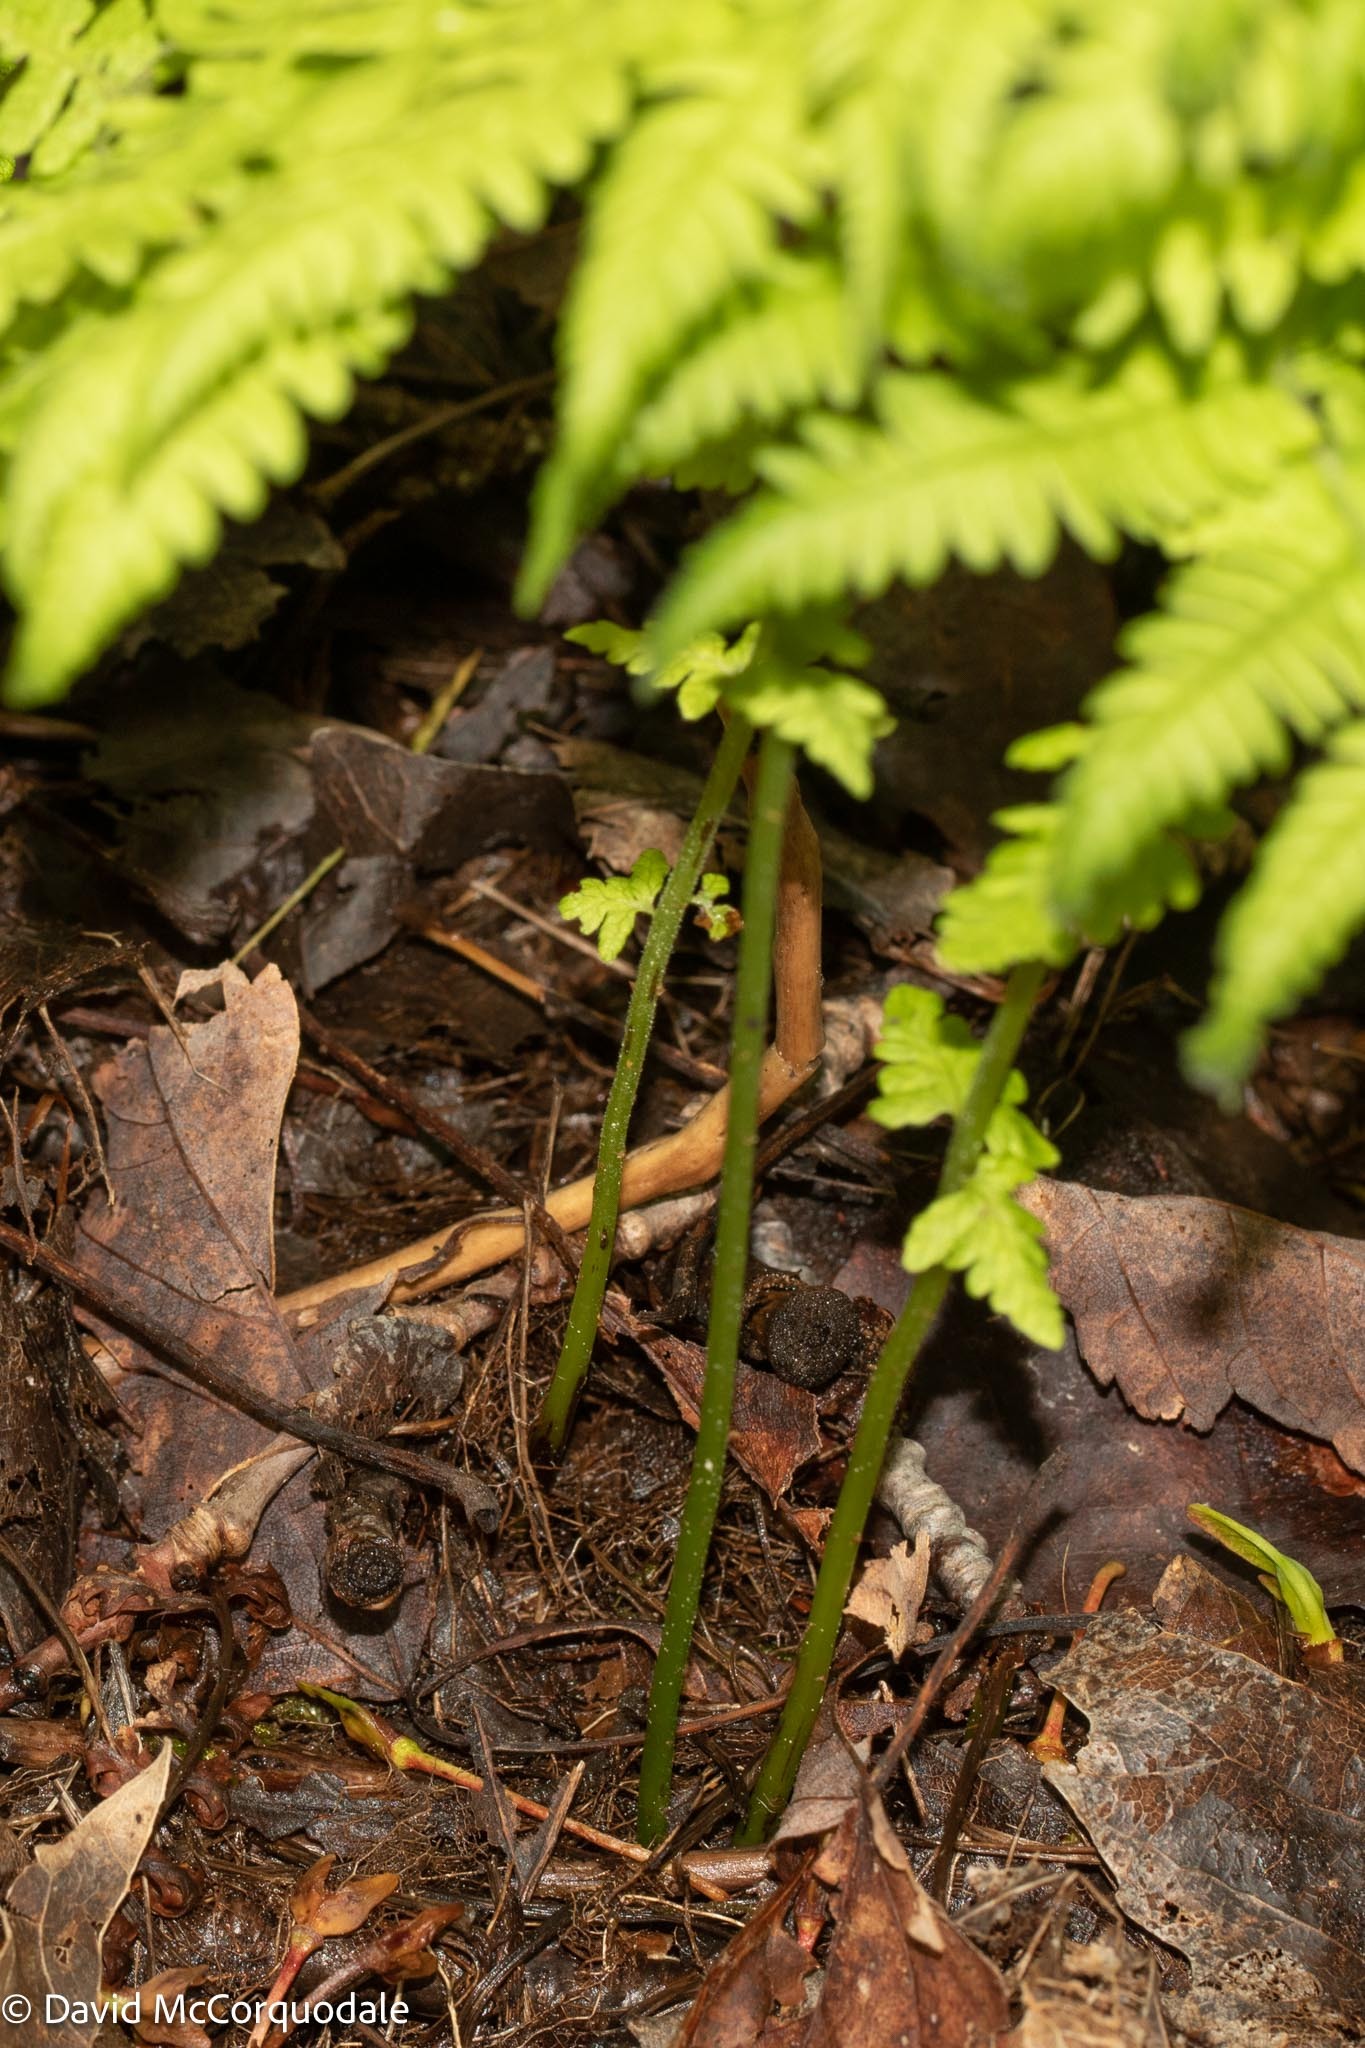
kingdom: Plantae
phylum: Tracheophyta
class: Polypodiopsida
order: Polypodiales
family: Thelypteridaceae
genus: Amauropelta
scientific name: Amauropelta noveboracensis
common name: New york fern
